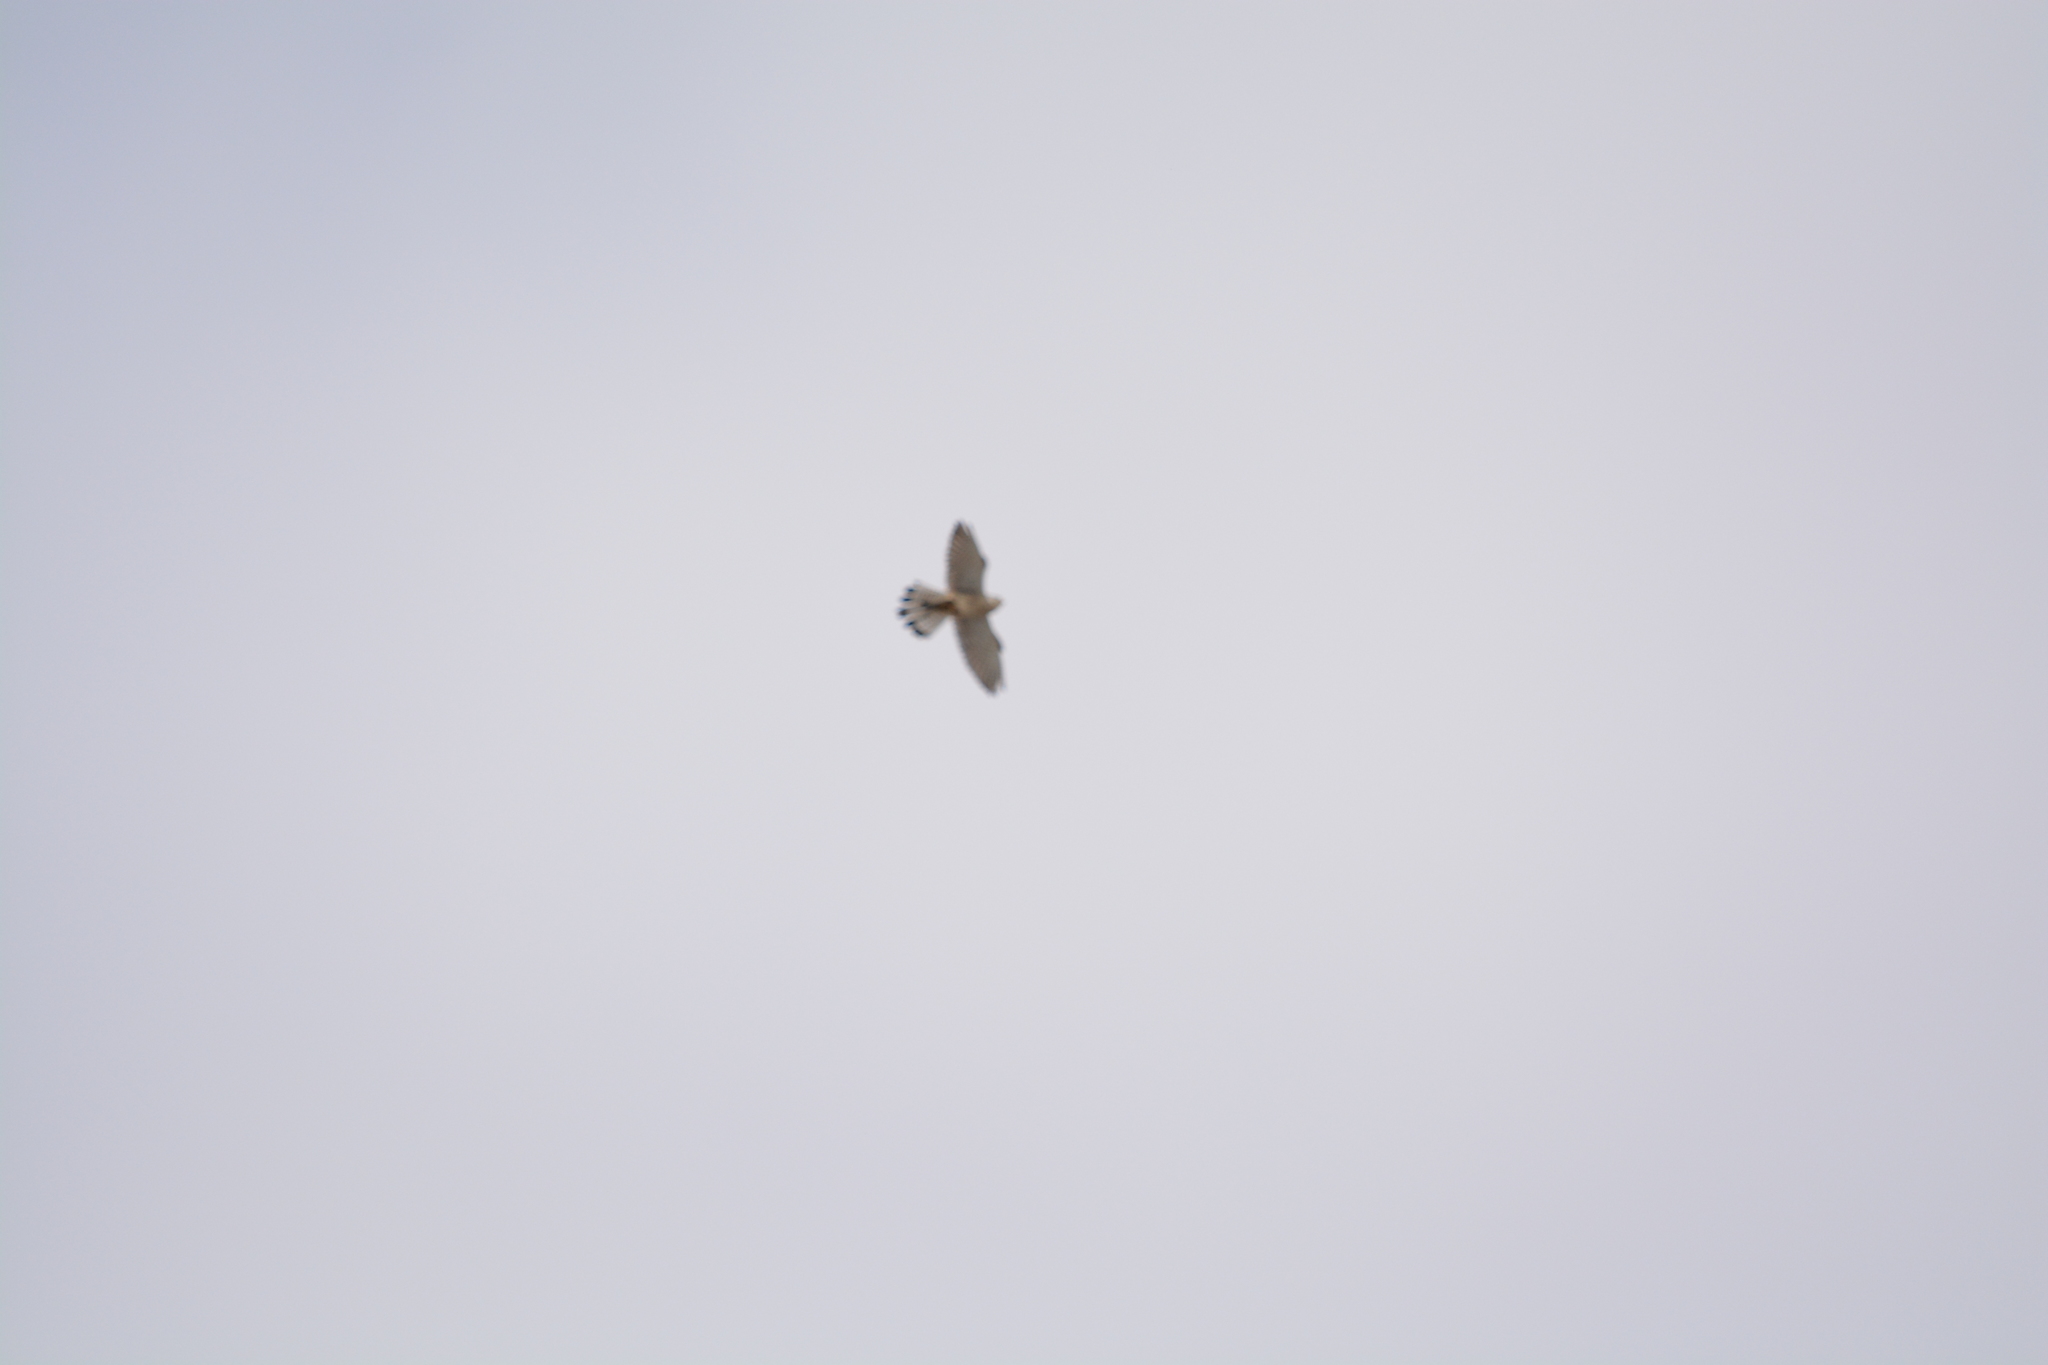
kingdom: Animalia
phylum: Chordata
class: Aves
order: Falconiformes
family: Falconidae
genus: Falco
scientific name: Falco tinnunculus
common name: Common kestrel
